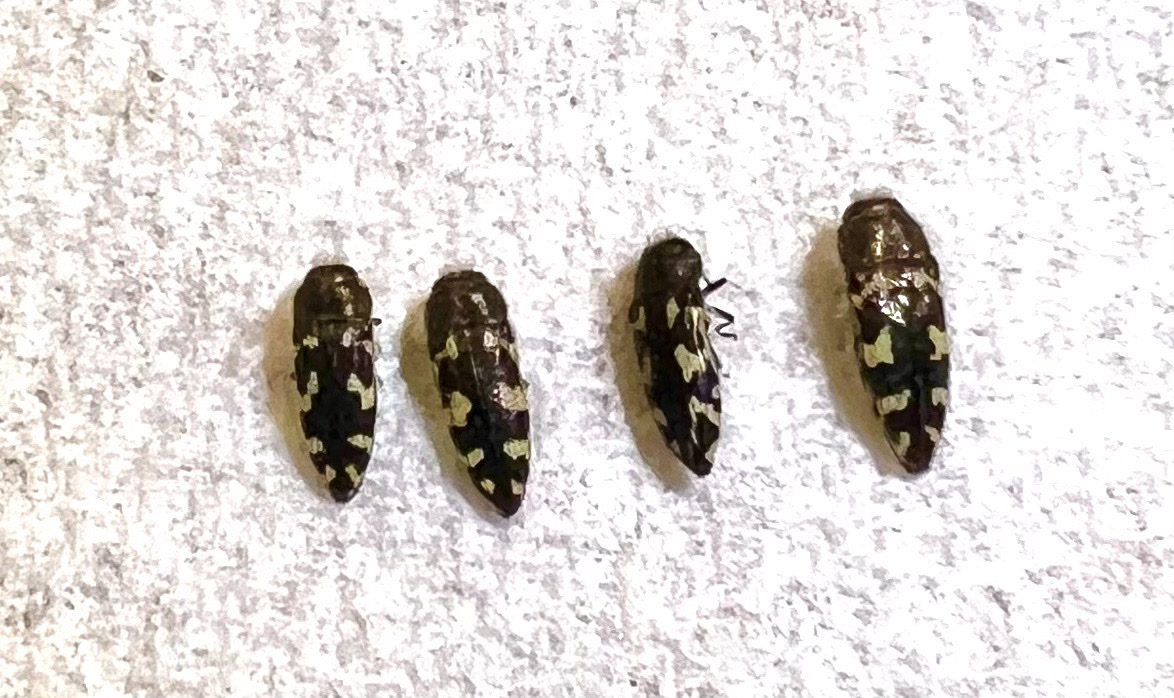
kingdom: Animalia
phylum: Arthropoda
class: Insecta
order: Coleoptera
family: Buprestidae
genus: Acmaeodera
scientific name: Acmaeodera linsleyi
